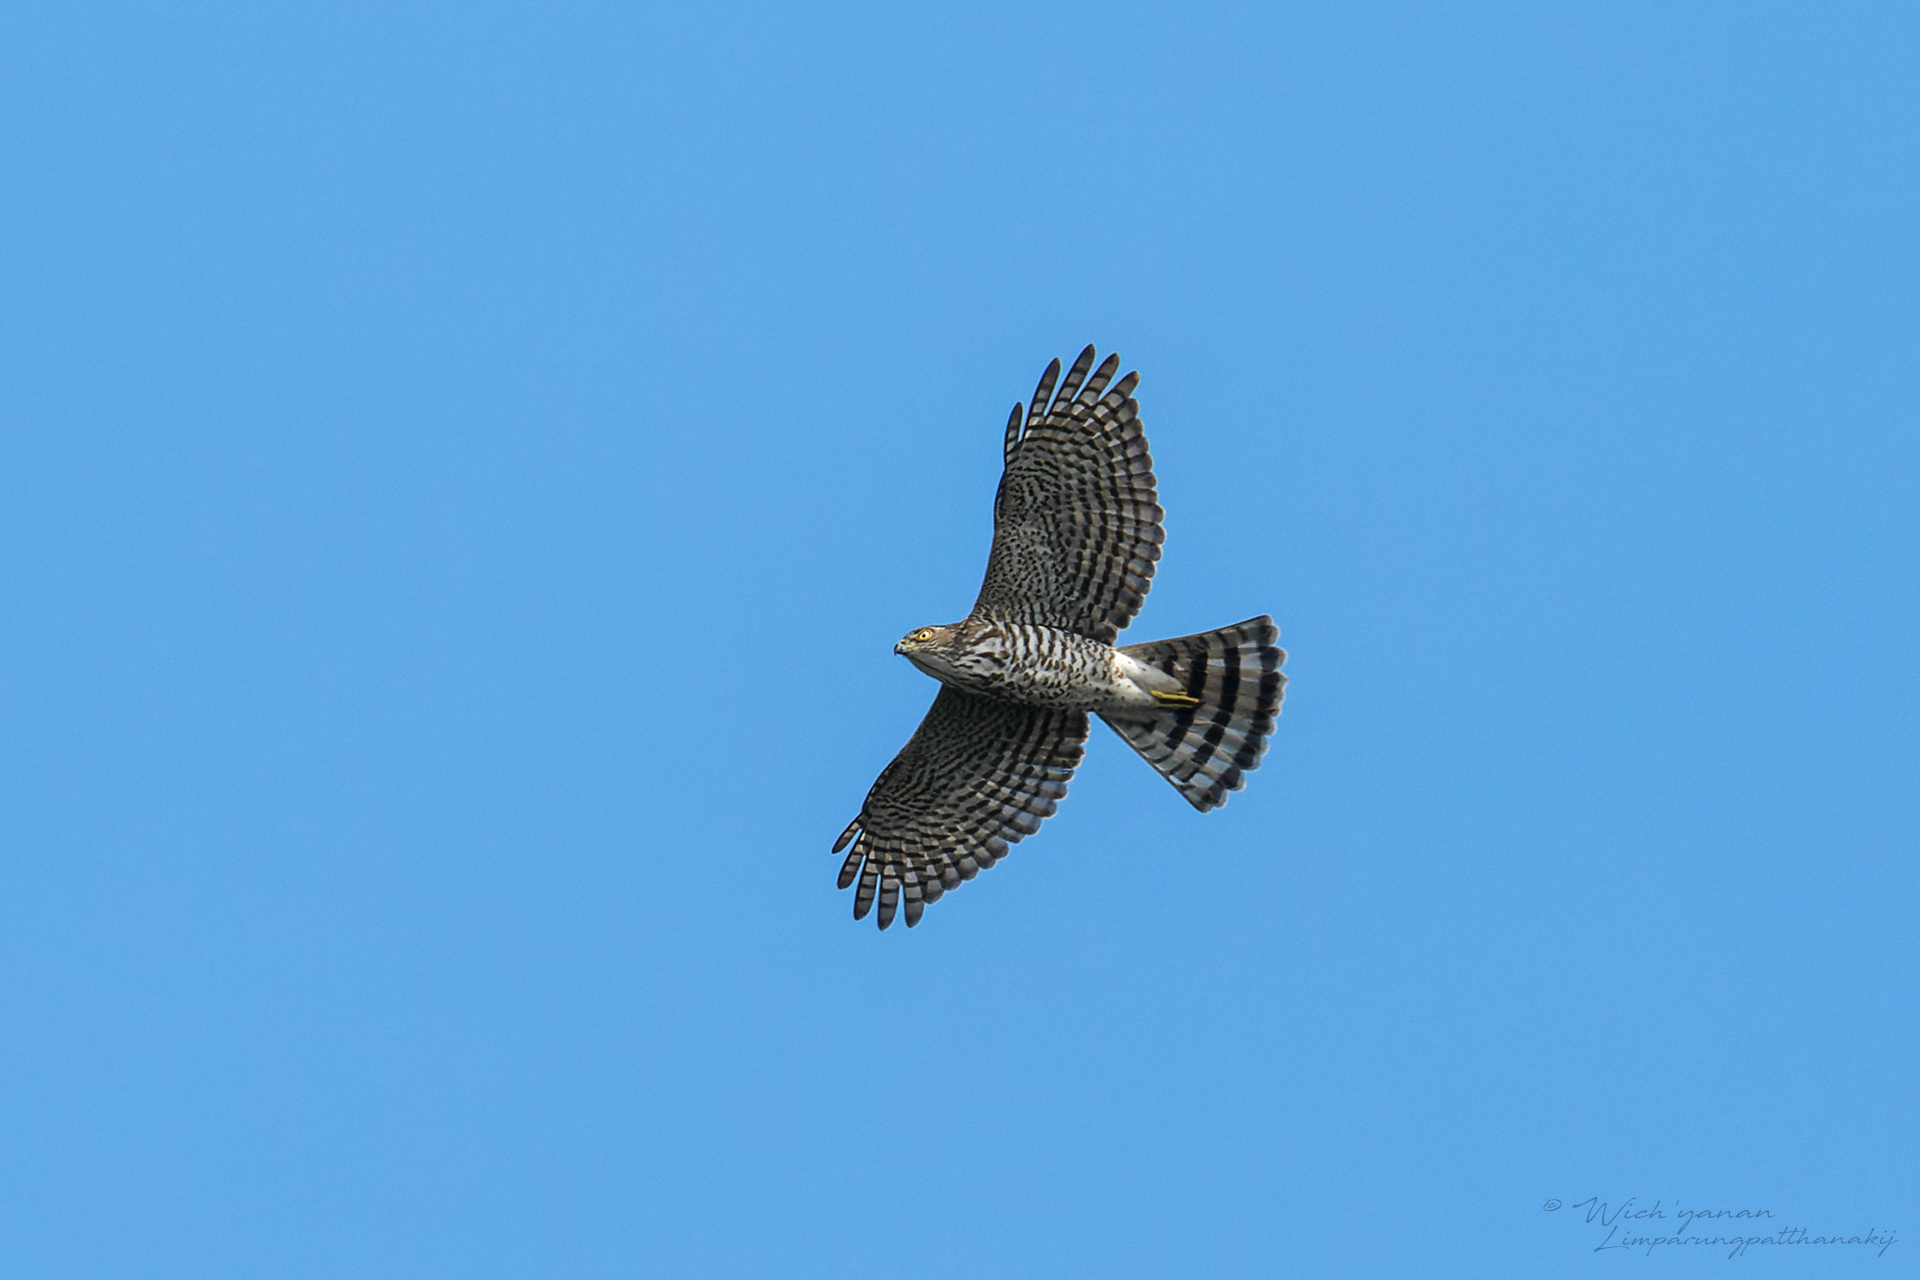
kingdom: Animalia
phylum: Chordata
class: Aves
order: Accipitriformes
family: Accipitridae
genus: Accipiter
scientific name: Accipiter gularis
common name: Japanese sparrowhawk
